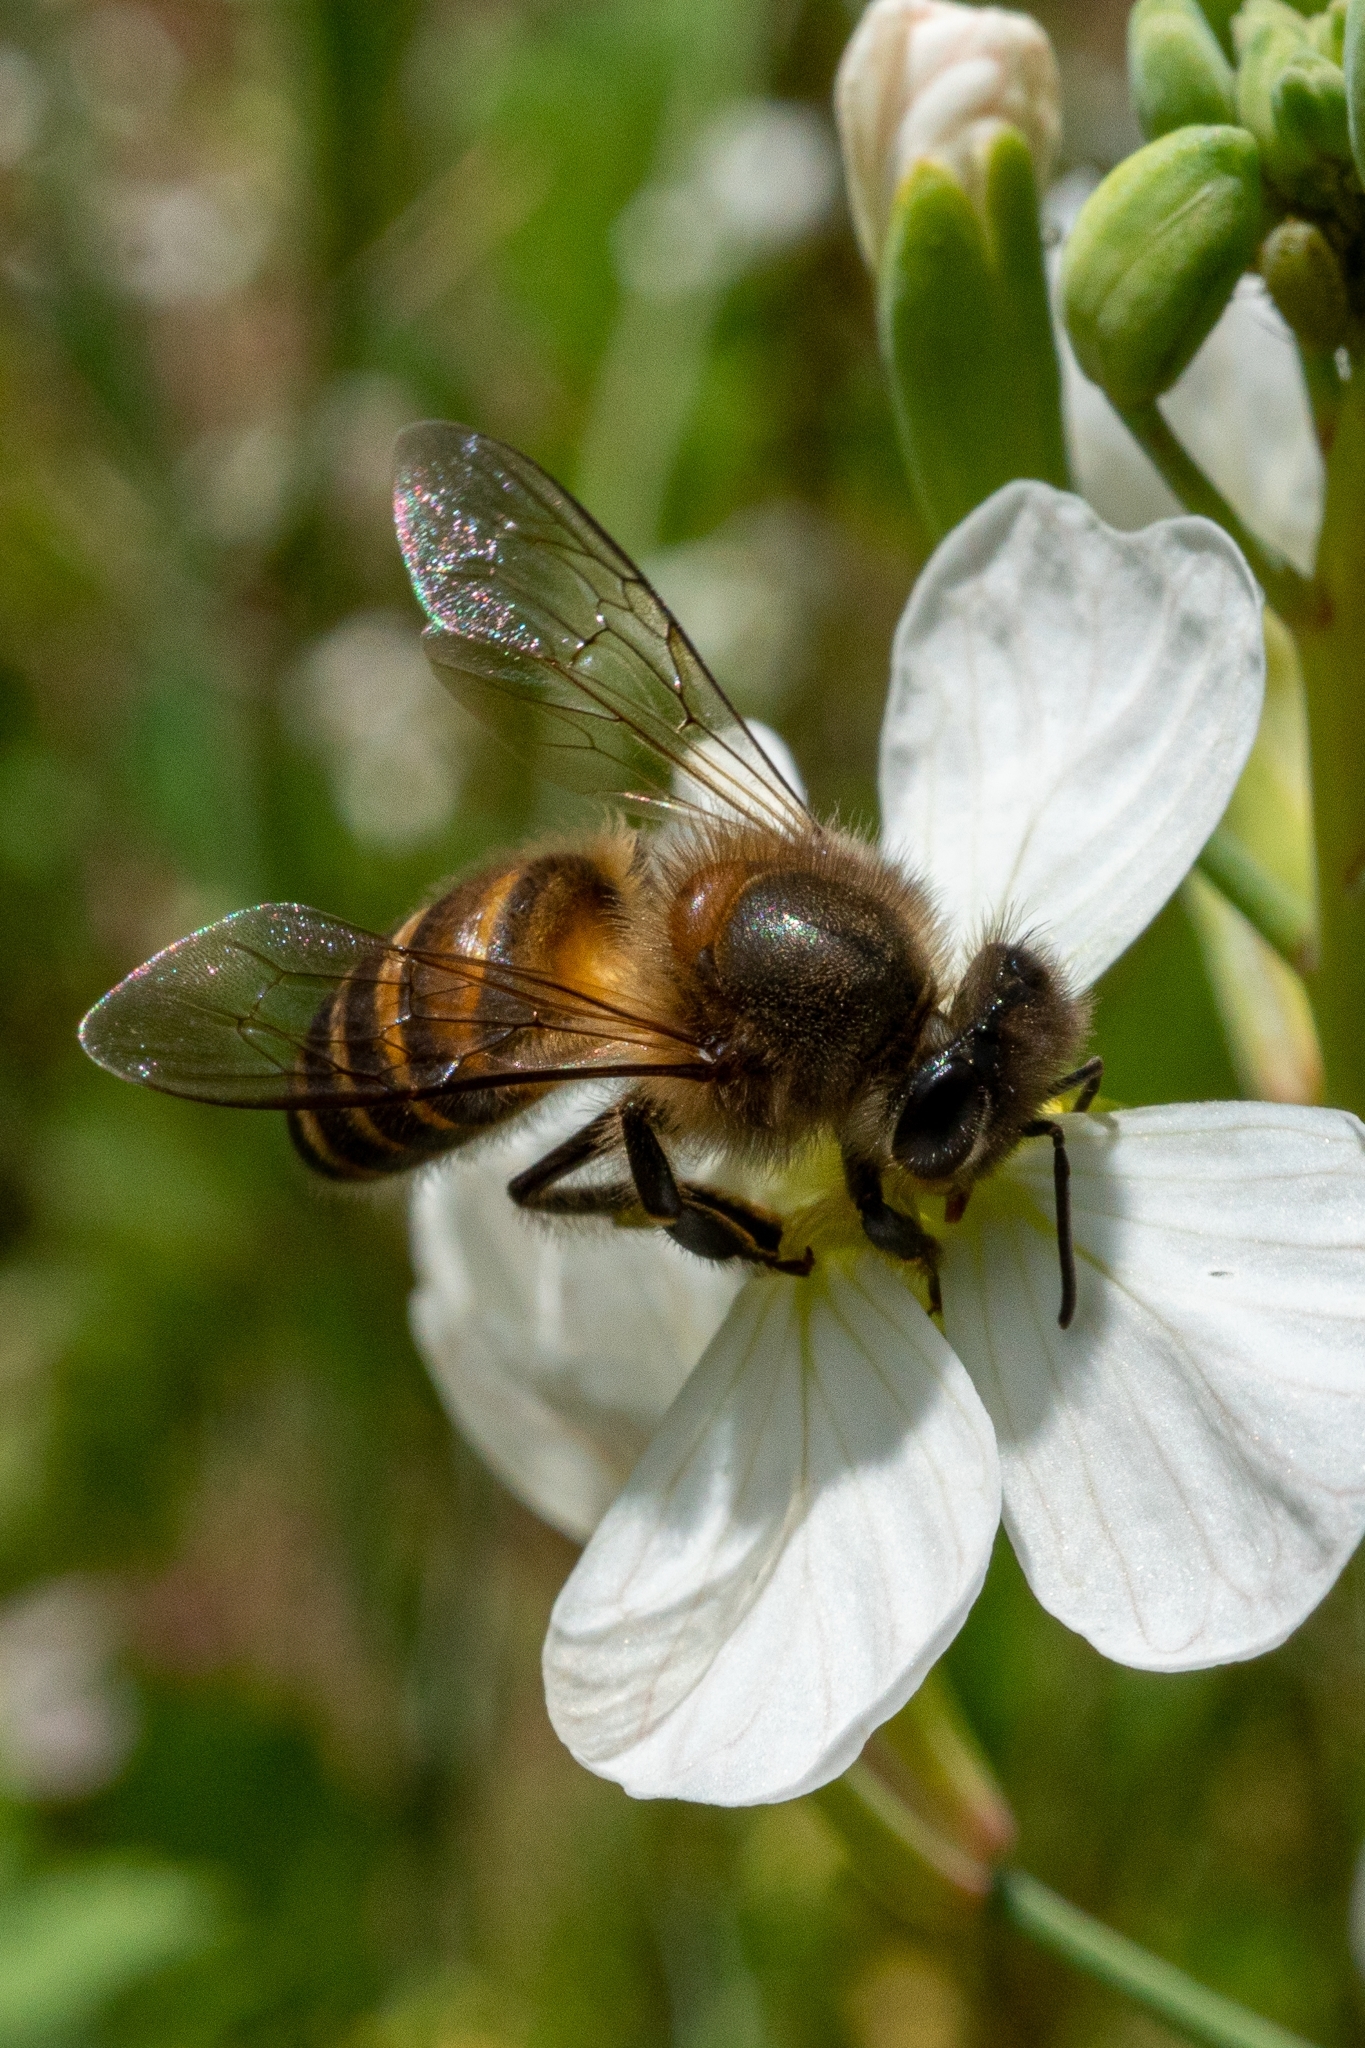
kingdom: Animalia
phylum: Arthropoda
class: Insecta
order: Hymenoptera
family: Apidae
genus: Apis
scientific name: Apis cerana
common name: Honey bee
